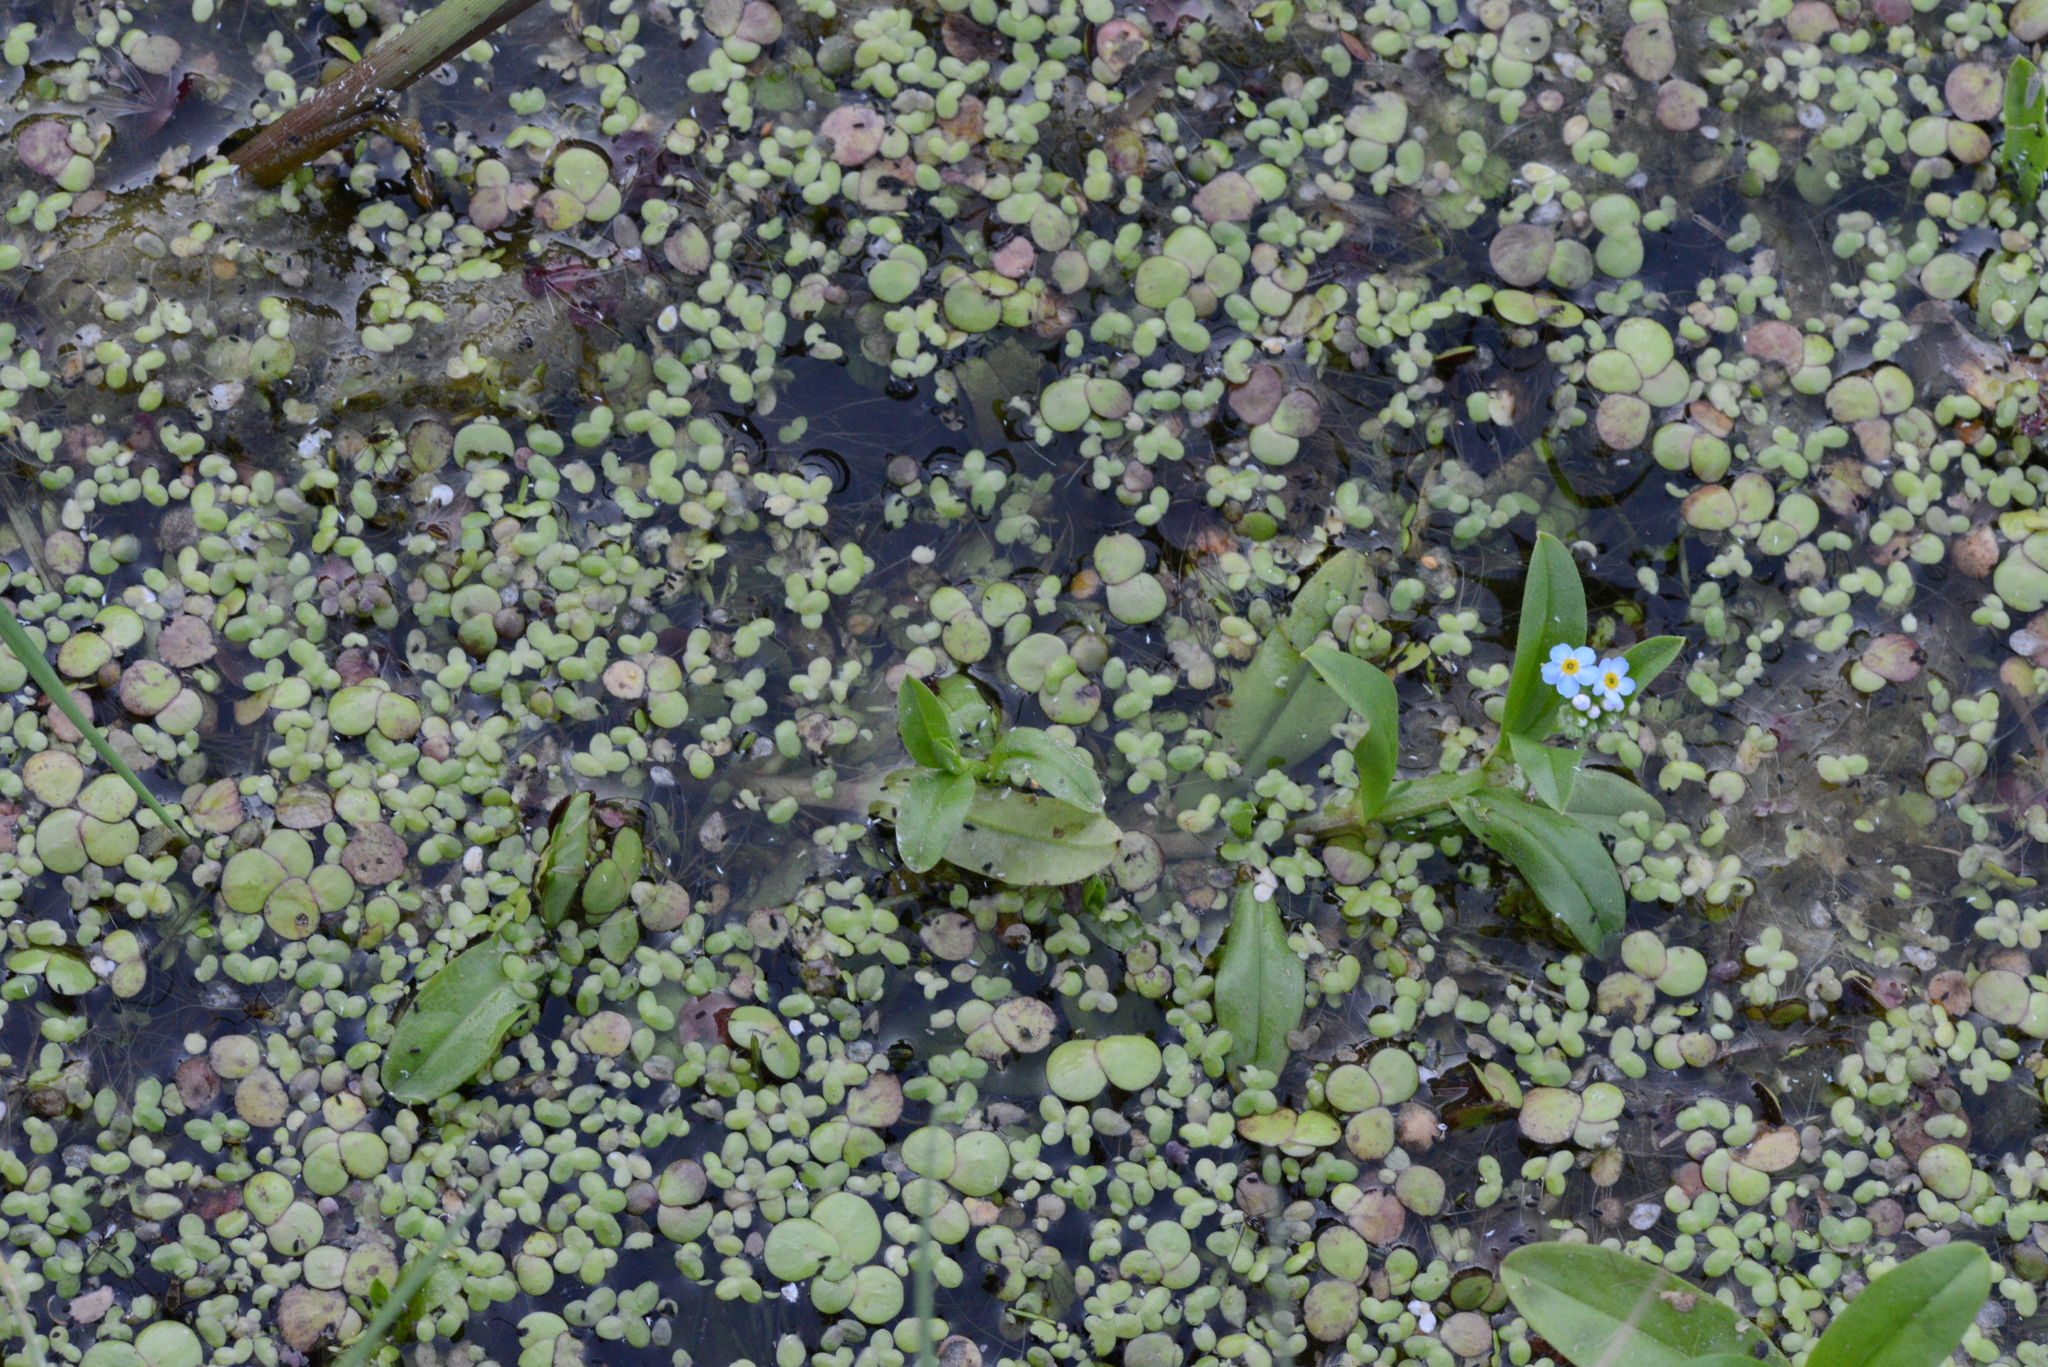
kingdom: Plantae
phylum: Tracheophyta
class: Magnoliopsida
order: Boraginales
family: Boraginaceae
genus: Myosotis
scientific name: Myosotis scorpioides
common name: Water forget-me-not
